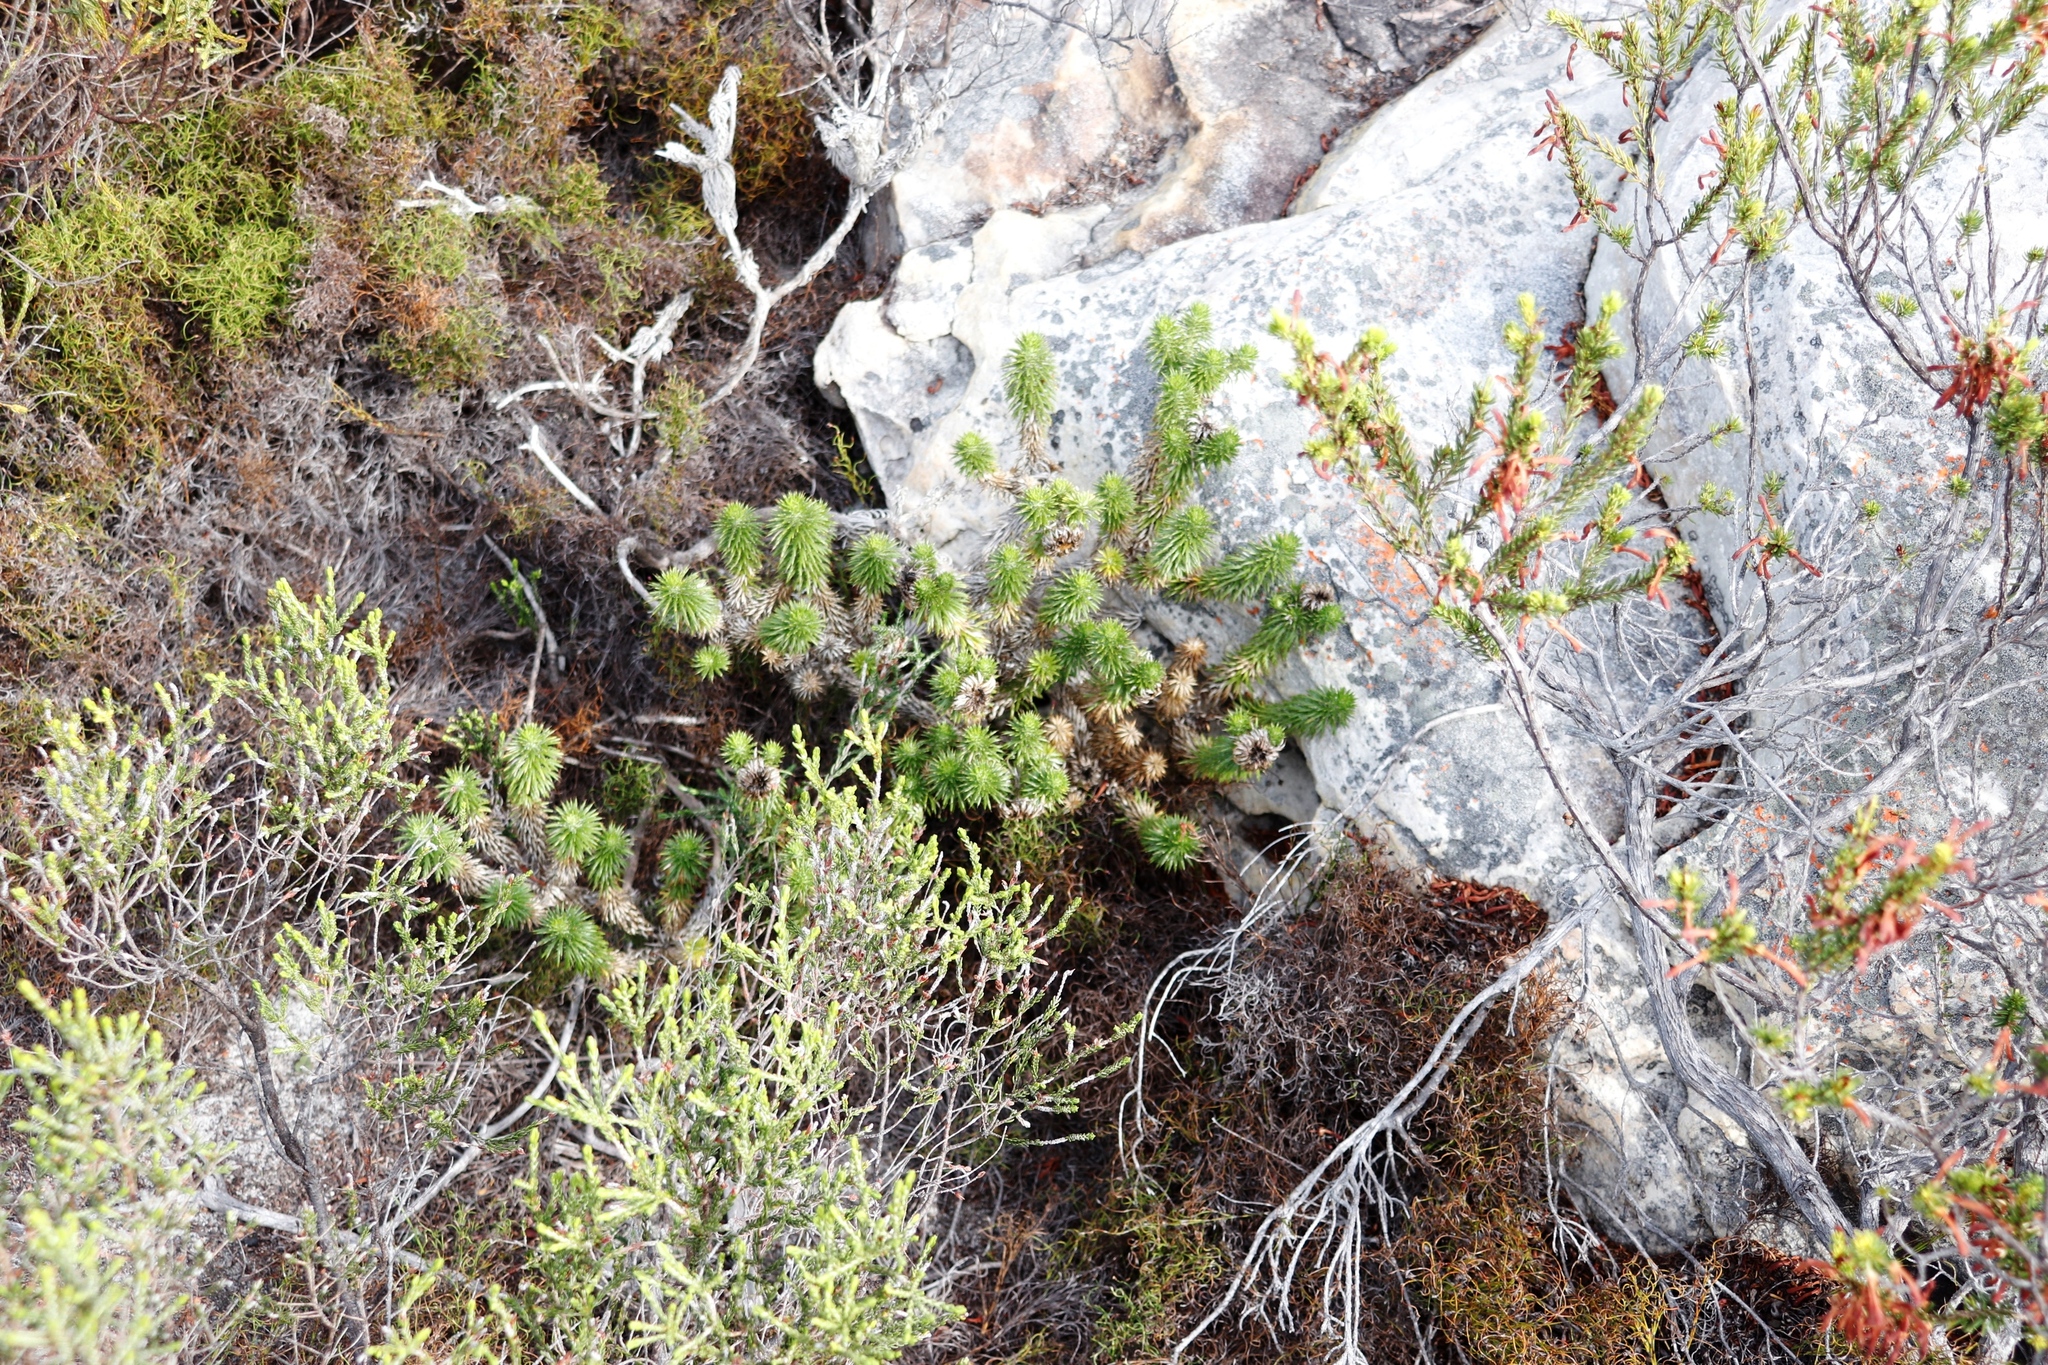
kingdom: Plantae
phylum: Tracheophyta
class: Magnoliopsida
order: Asterales
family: Asteraceae
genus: Cullumia
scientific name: Cullumia squarrosa
